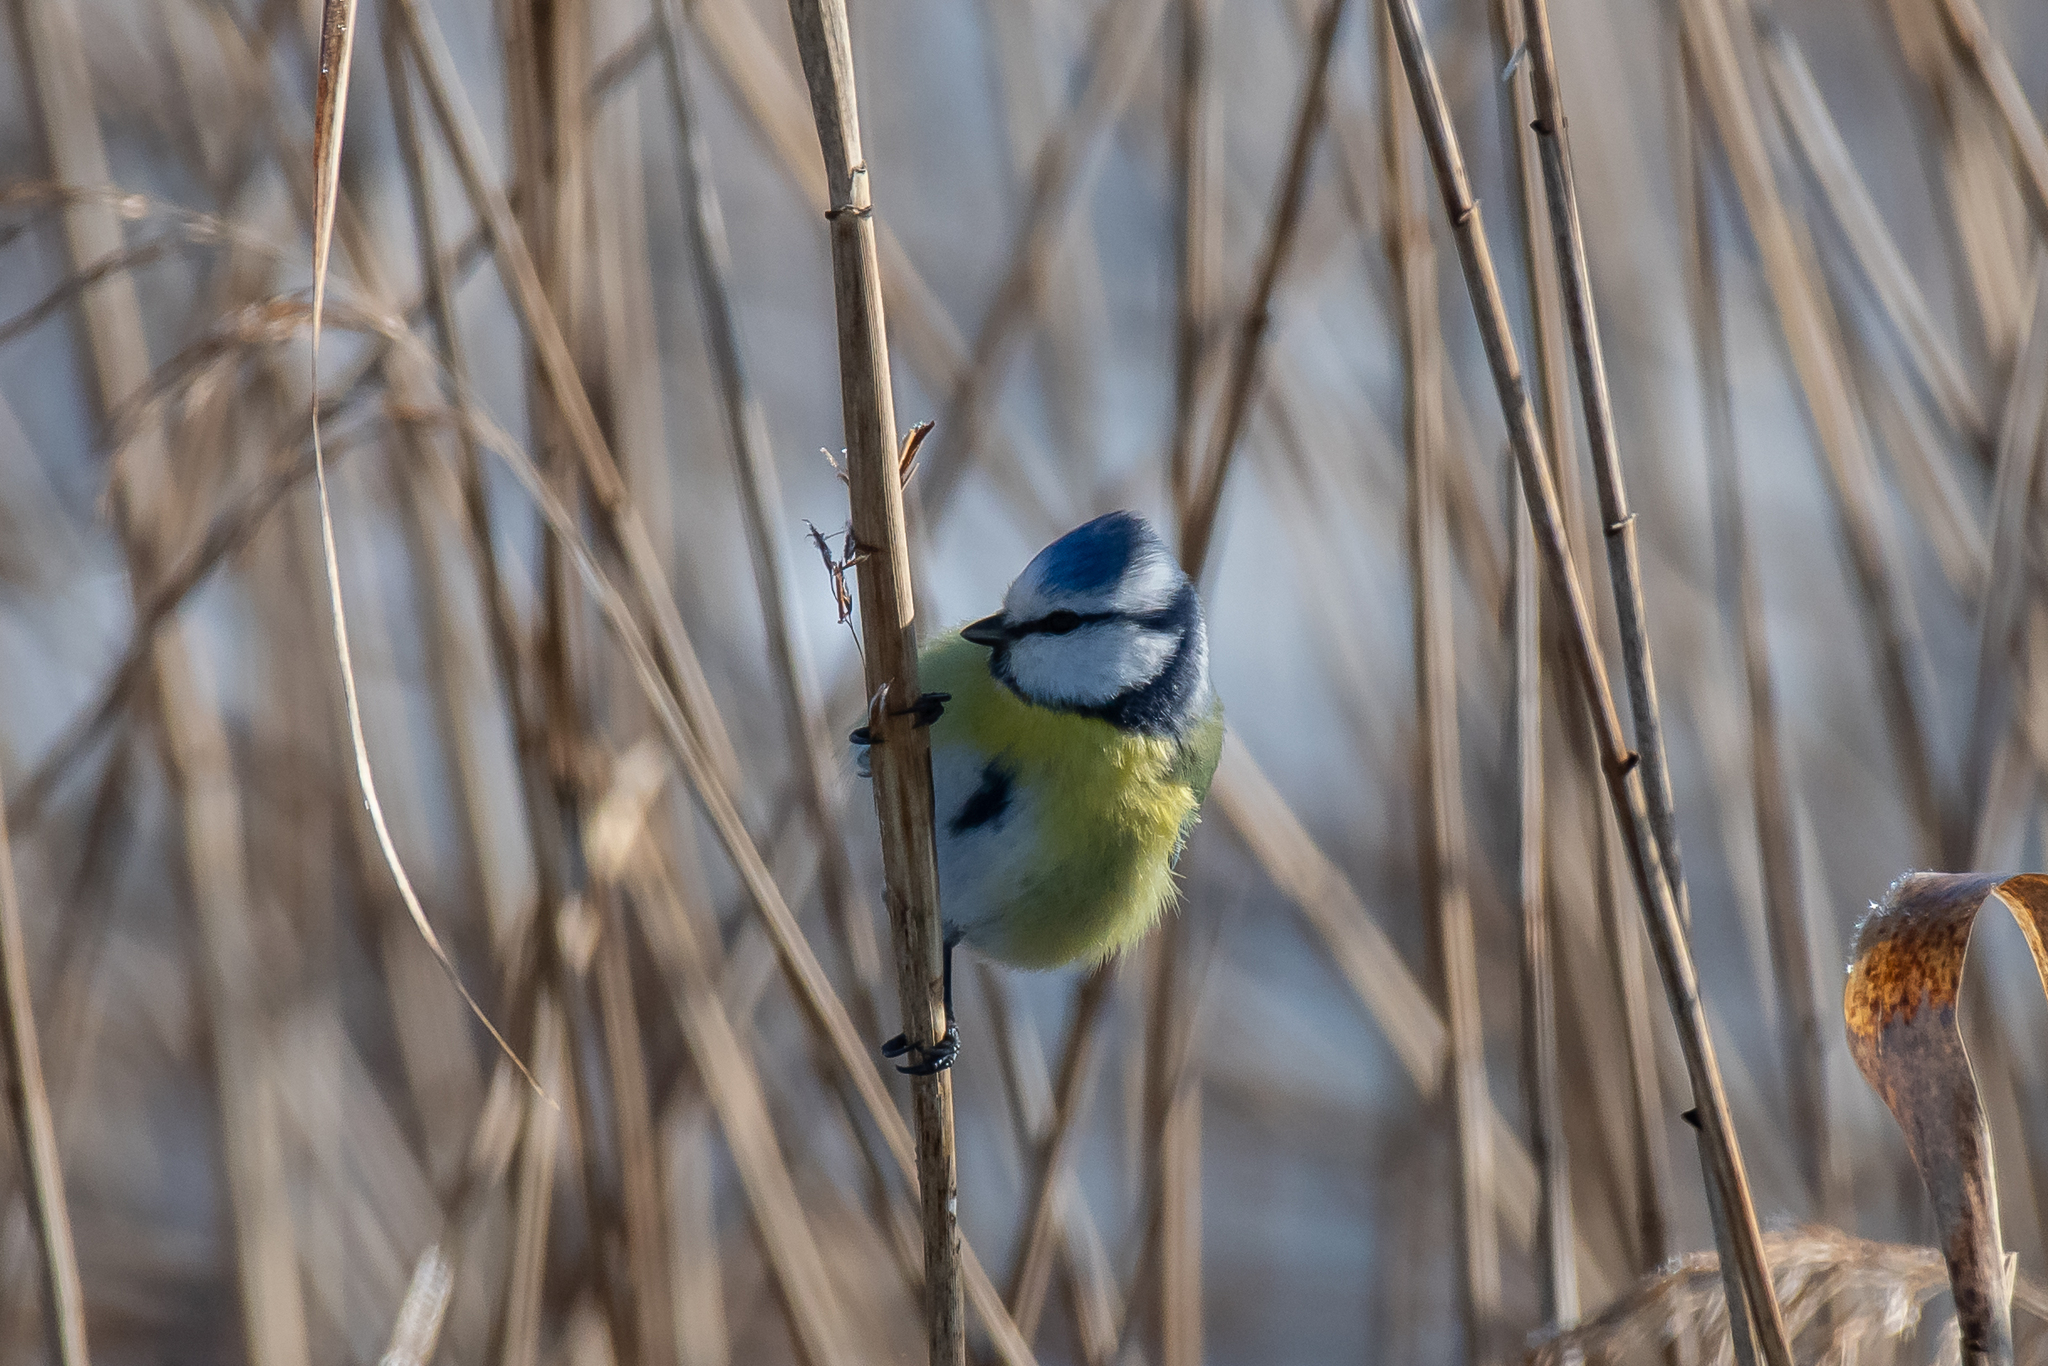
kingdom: Animalia
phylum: Chordata
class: Aves
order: Passeriformes
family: Paridae
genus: Cyanistes
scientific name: Cyanistes caeruleus
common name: Eurasian blue tit
